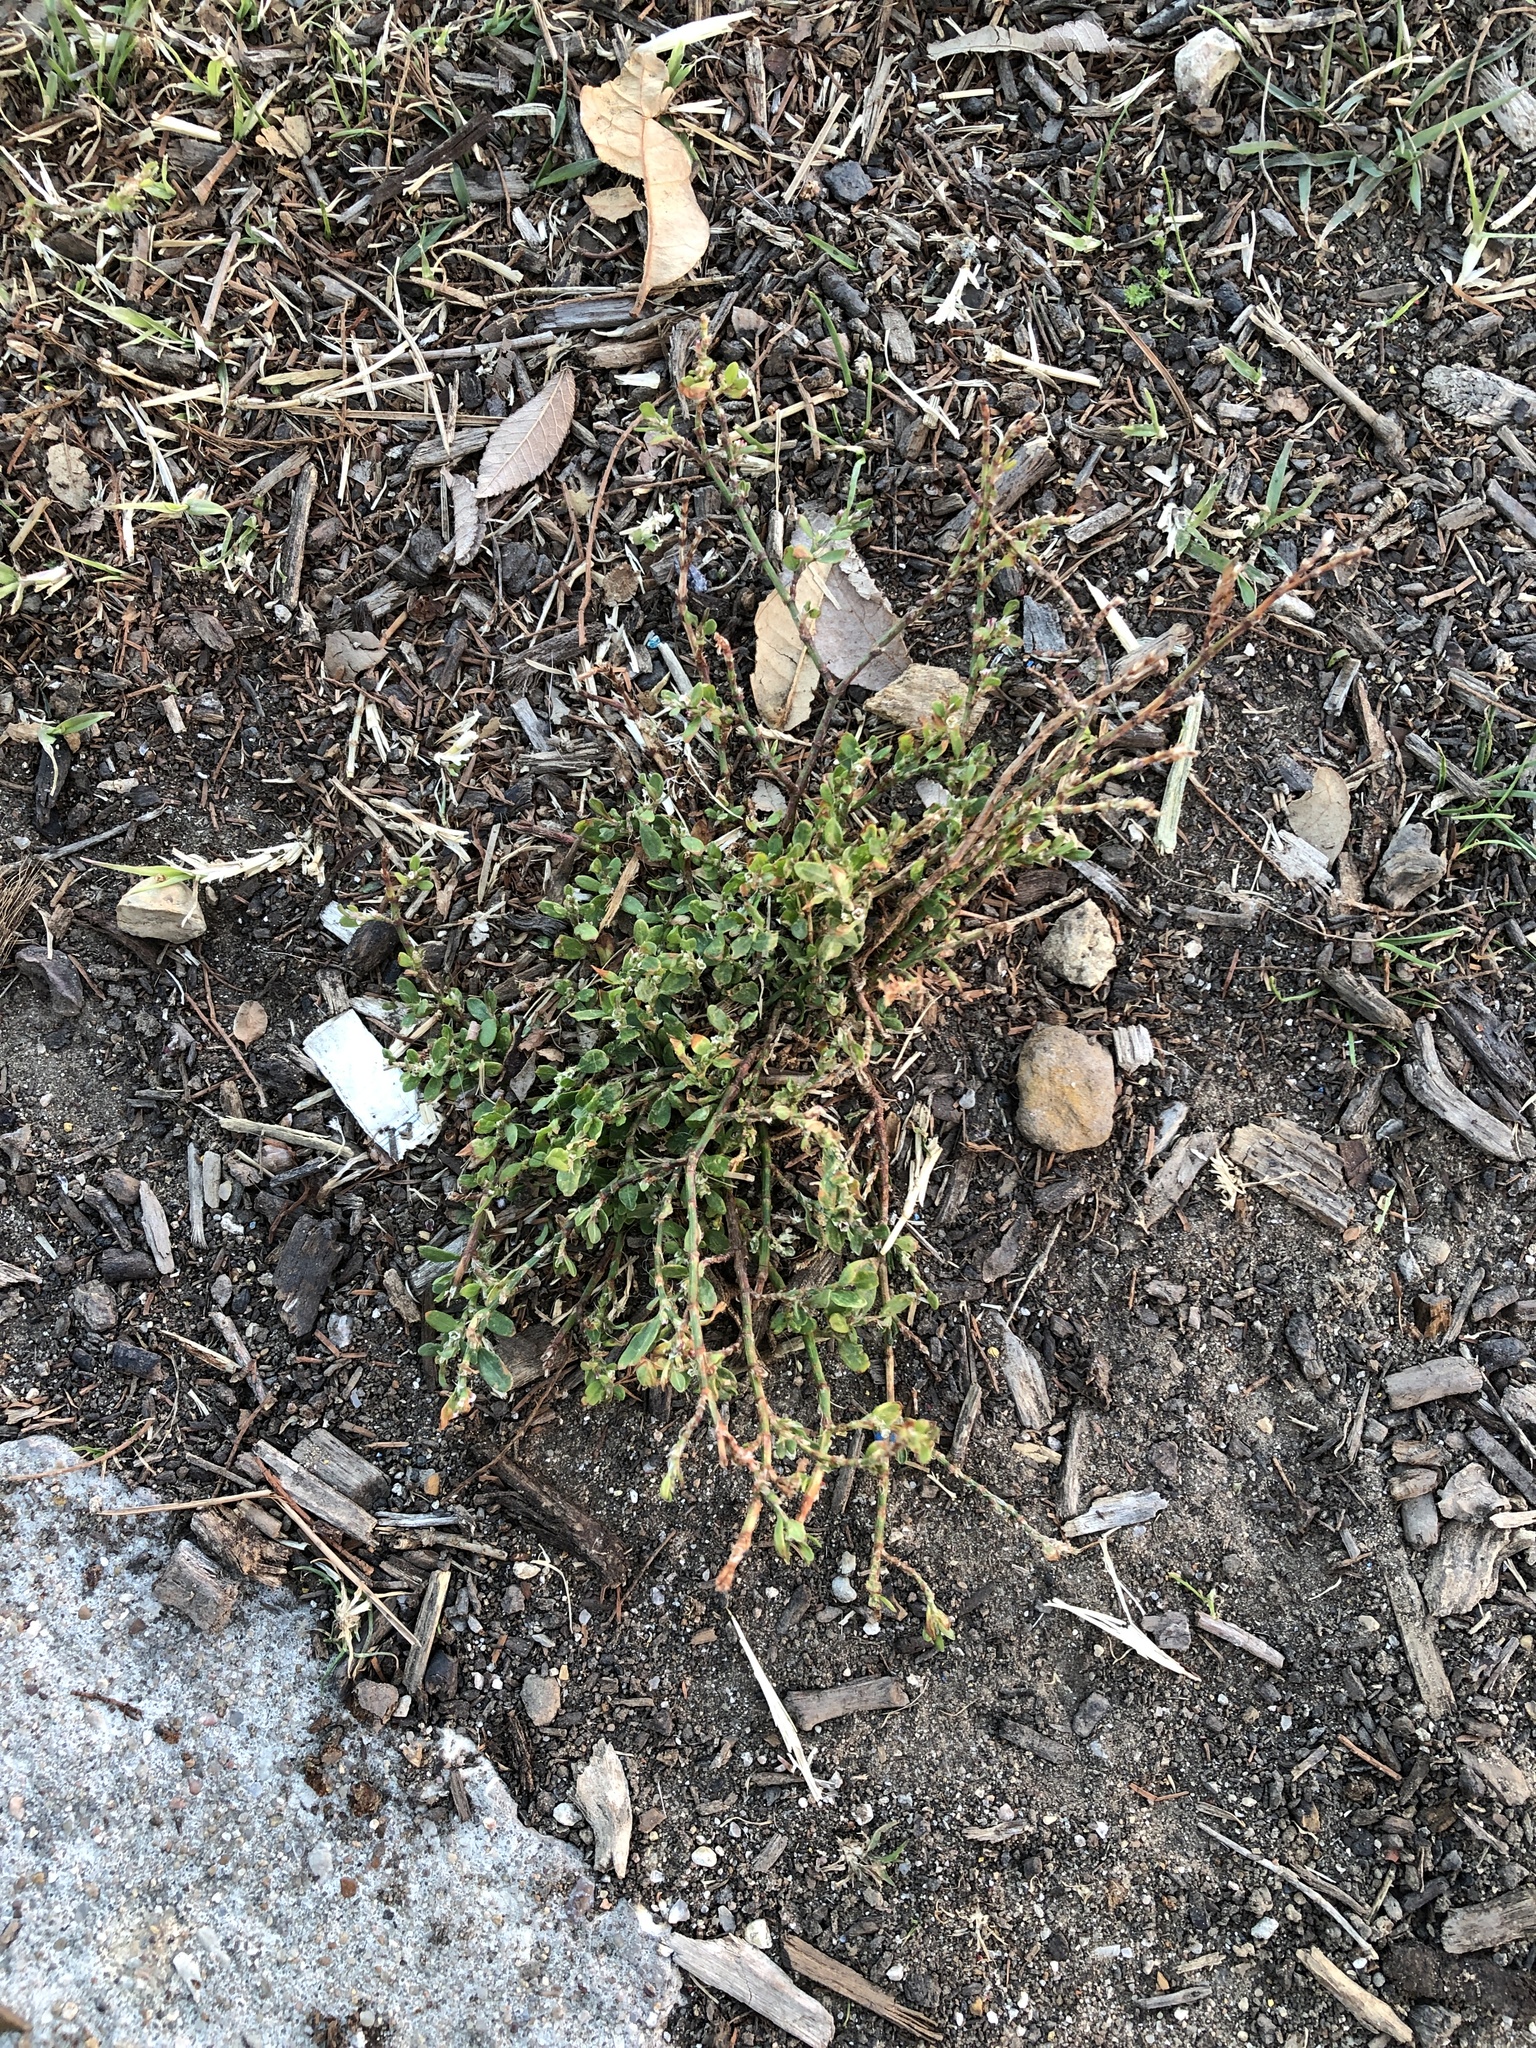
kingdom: Plantae
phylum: Tracheophyta
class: Magnoliopsida
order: Caryophyllales
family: Polygonaceae
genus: Polygonum
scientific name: Polygonum aviculare
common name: Prostrate knotweed
